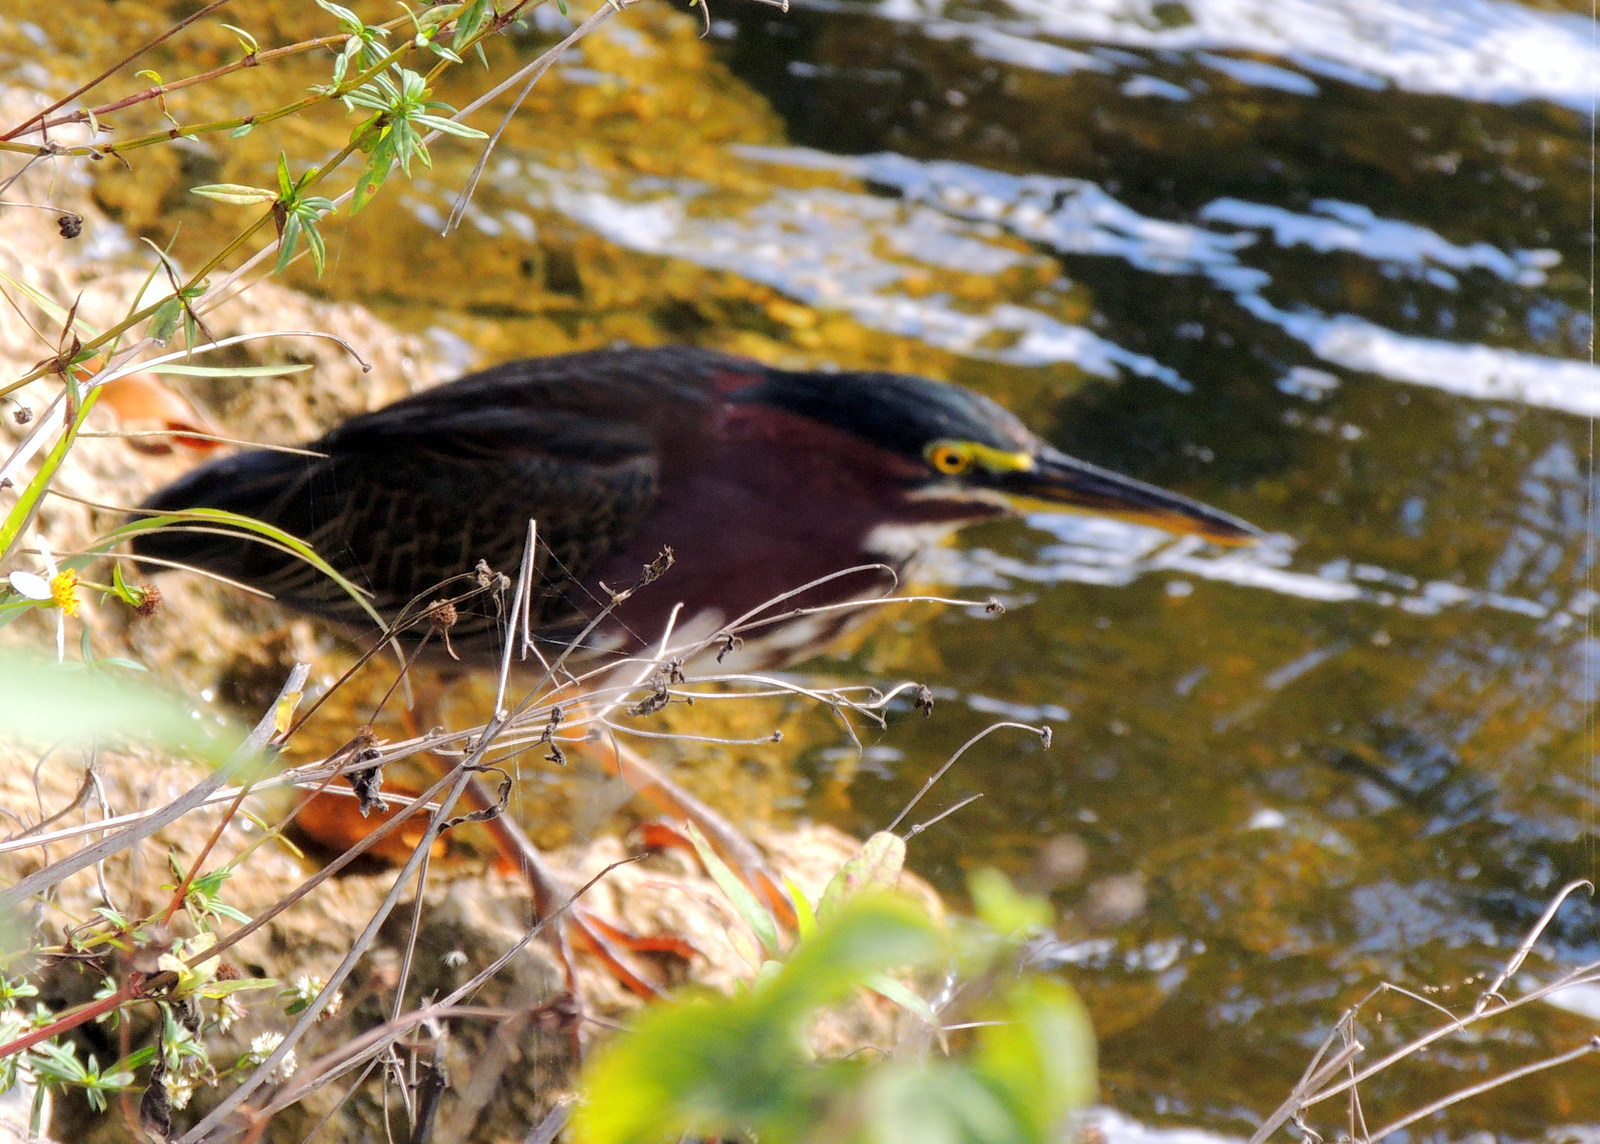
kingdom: Animalia
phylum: Chordata
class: Aves
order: Pelecaniformes
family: Ardeidae
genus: Butorides
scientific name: Butorides virescens
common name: Green heron
